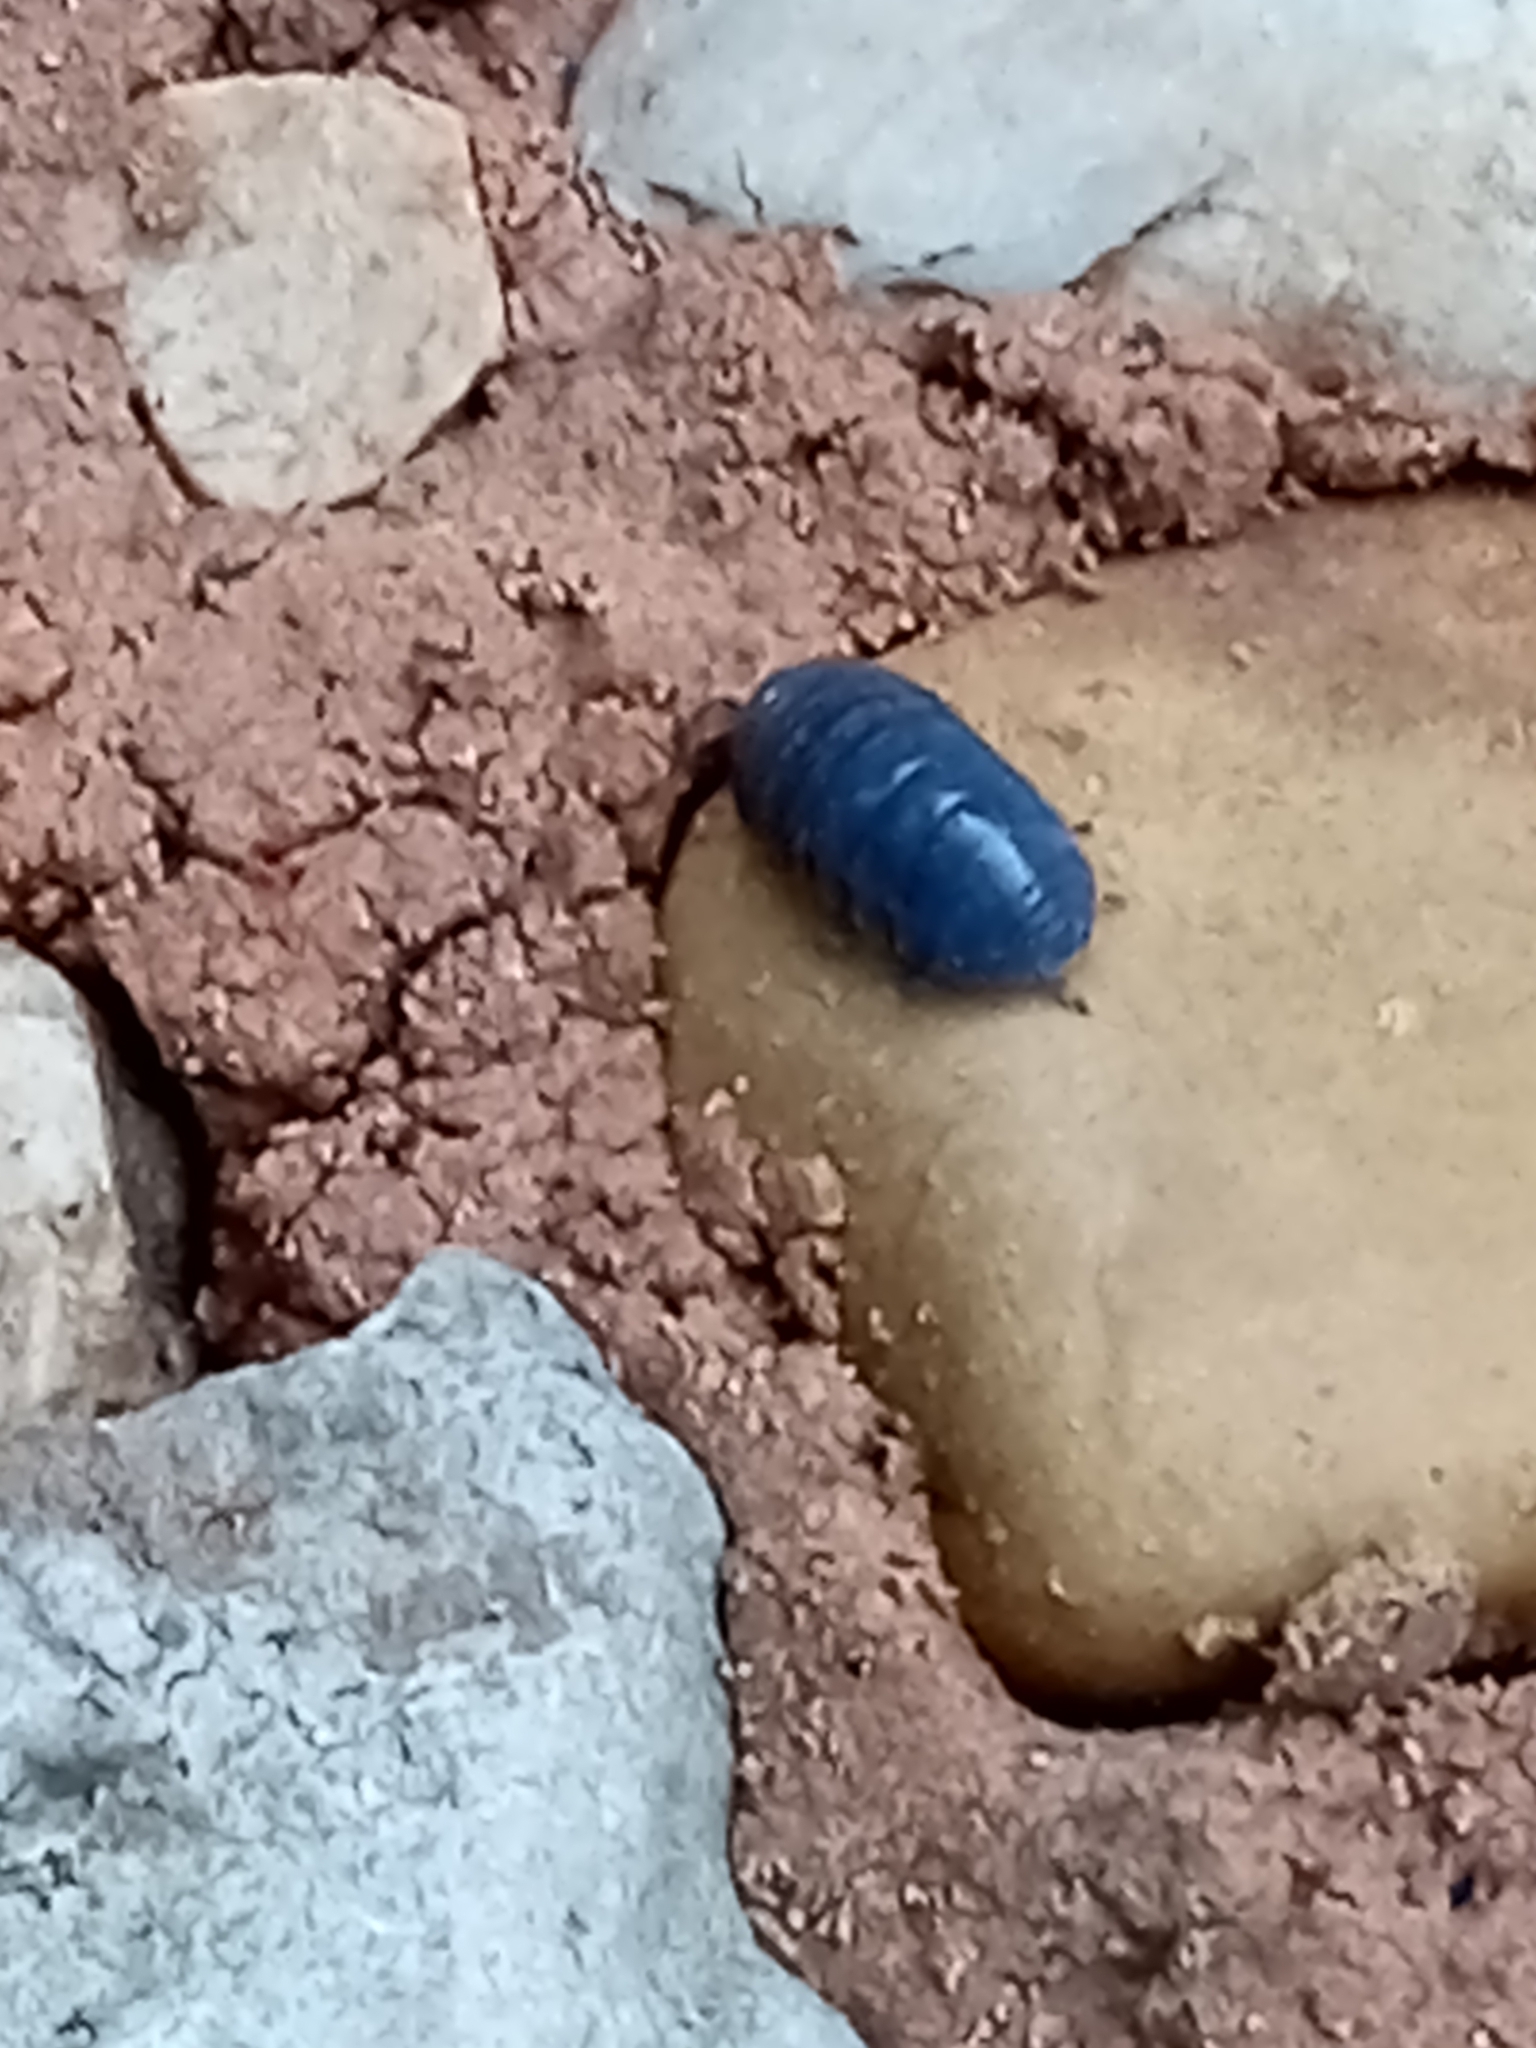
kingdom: Animalia
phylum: Arthropoda
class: Malacostraca
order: Isopoda
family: Armadillidiidae
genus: Armadillidium
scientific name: Armadillidium vulgare
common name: Common pill woodlouse
